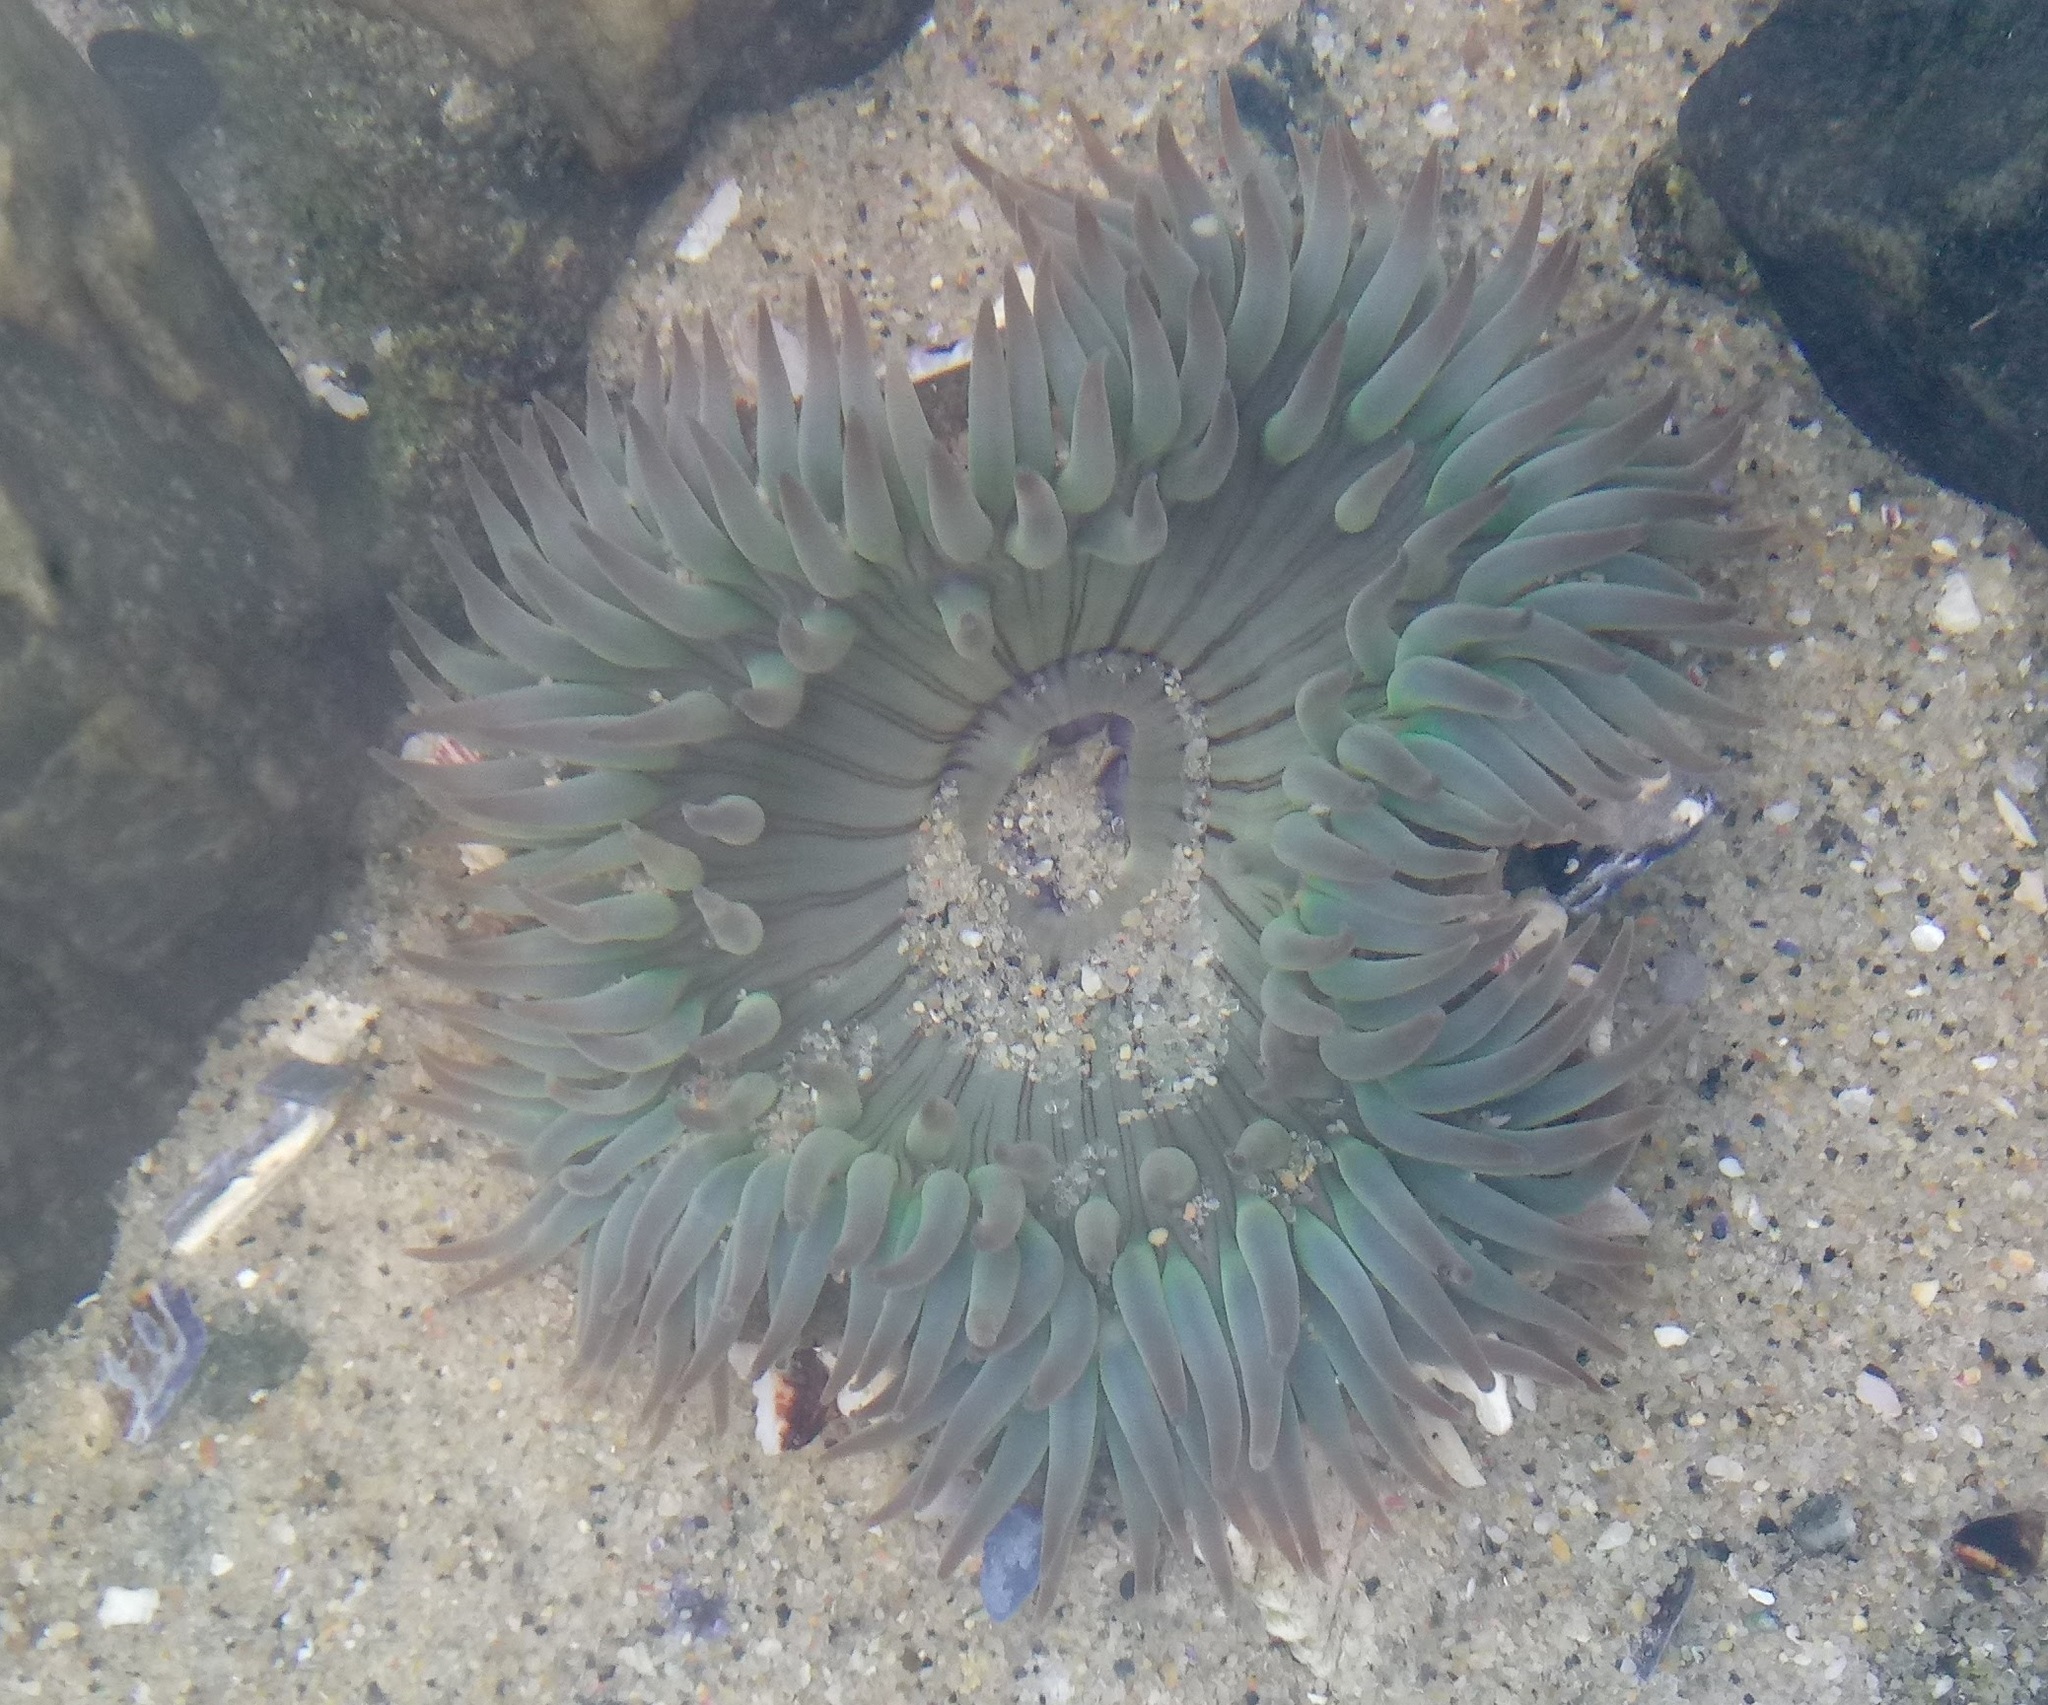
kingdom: Animalia
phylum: Cnidaria
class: Anthozoa
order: Actiniaria
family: Actiniidae
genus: Anthopleura
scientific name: Anthopleura sola
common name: Sun anemone
